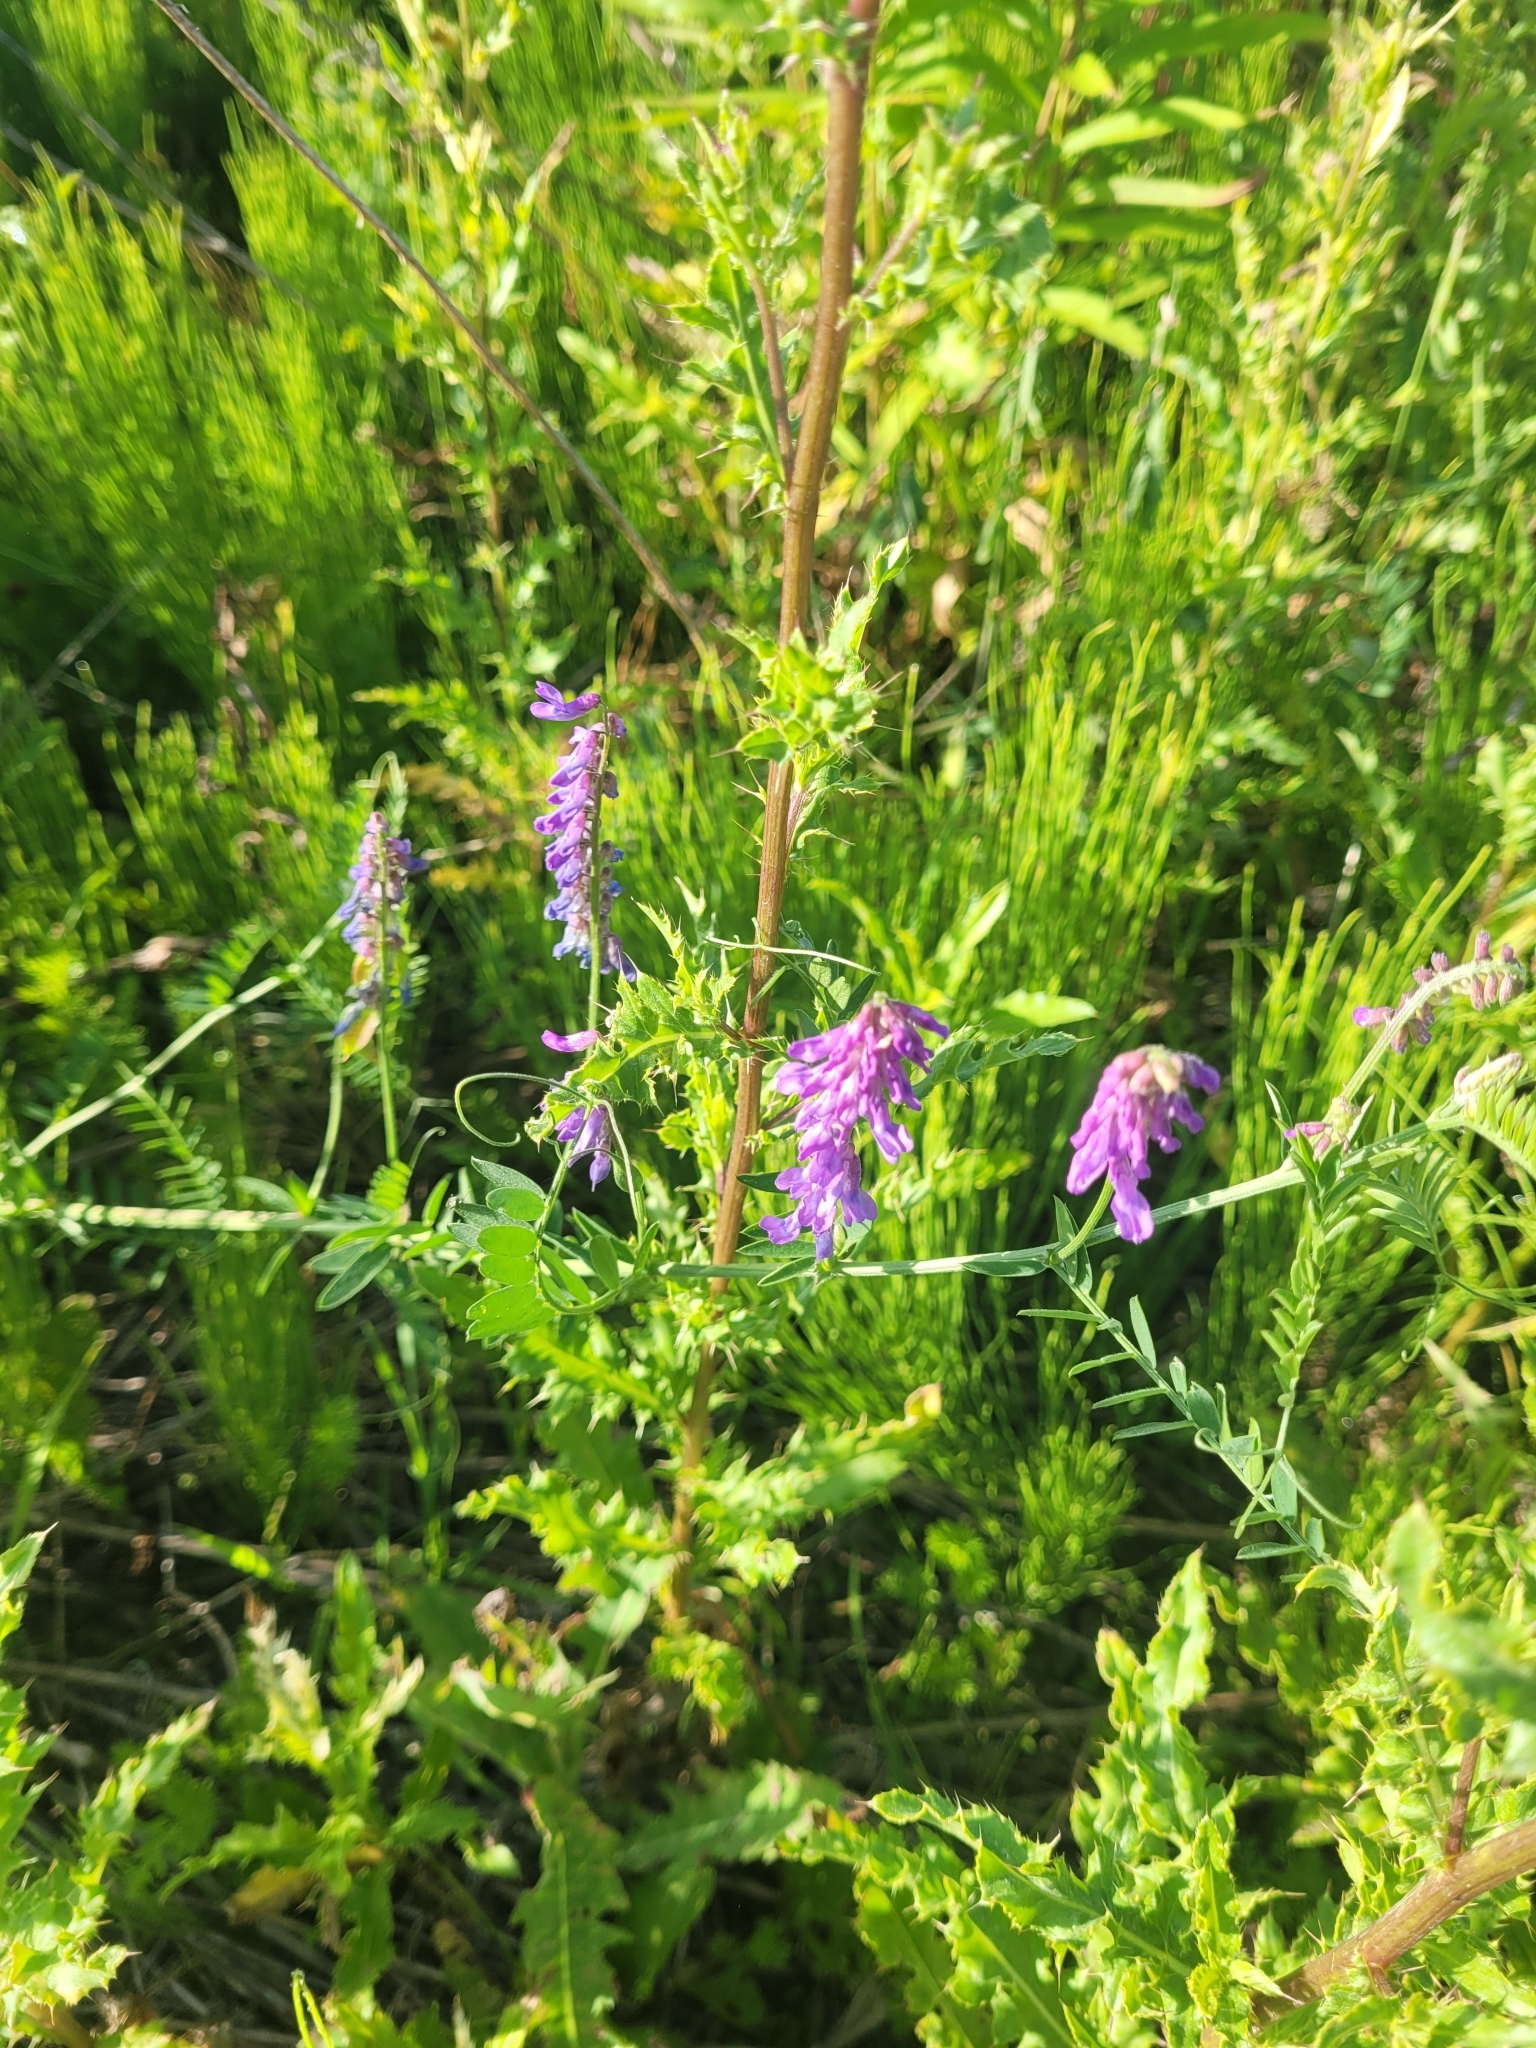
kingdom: Plantae
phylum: Tracheophyta
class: Magnoliopsida
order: Fabales
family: Fabaceae
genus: Vicia
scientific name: Vicia cracca
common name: Bird vetch
